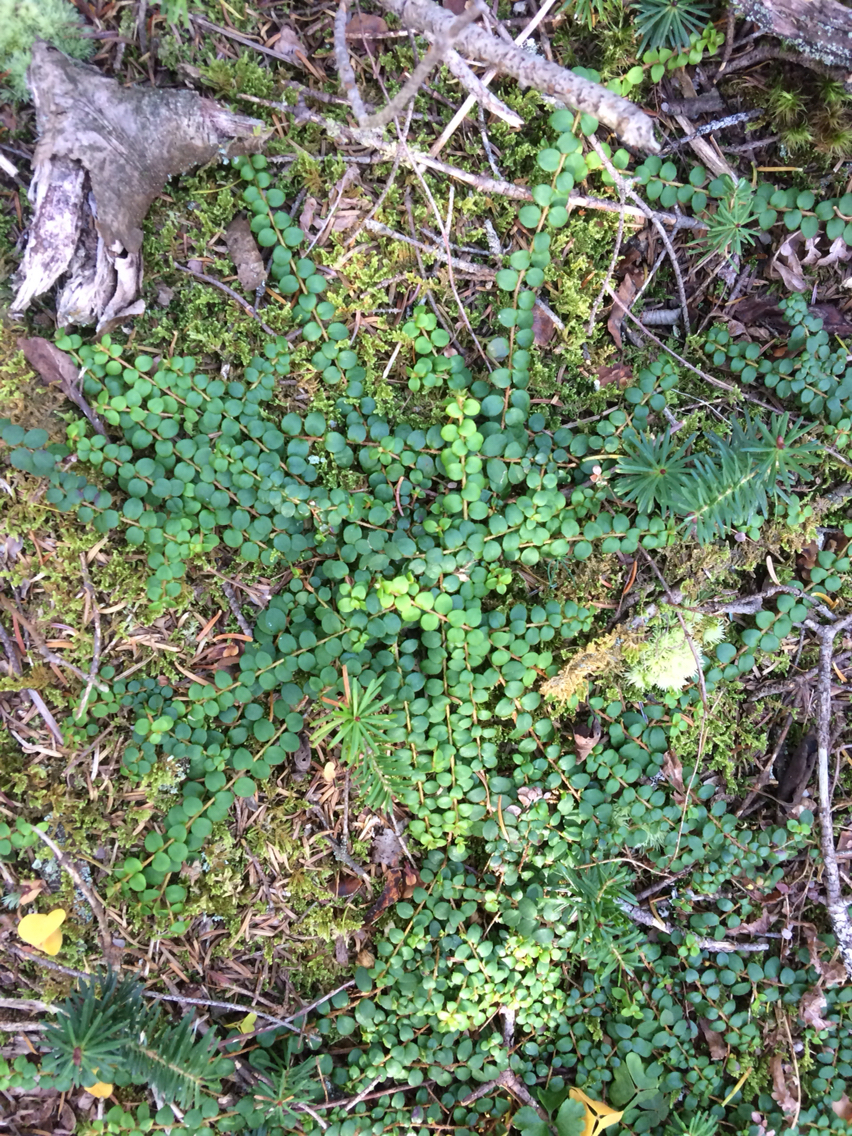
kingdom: Plantae
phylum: Tracheophyta
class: Magnoliopsida
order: Ericales
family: Ericaceae
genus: Gaultheria
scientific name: Gaultheria hispidula
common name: Cancer wintergreen
